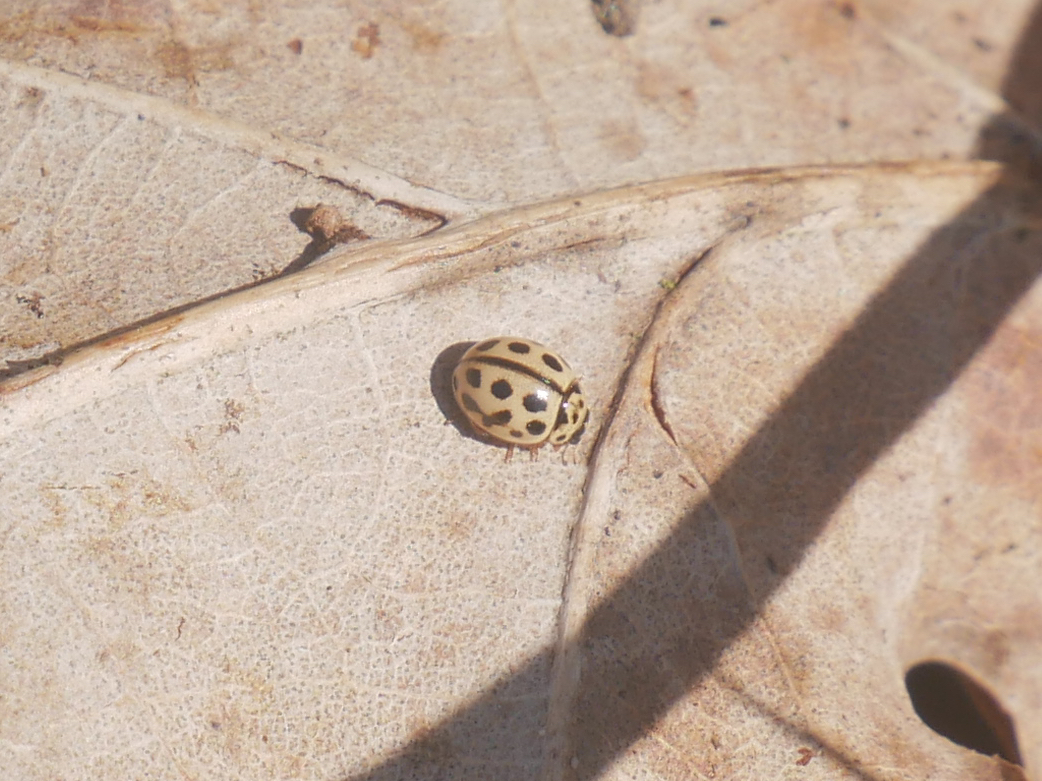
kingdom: Animalia
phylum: Arthropoda
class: Insecta
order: Coleoptera
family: Coccinellidae
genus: Tytthaspis
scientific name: Tytthaspis sedecimpunctata
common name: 16-spot ladybird
